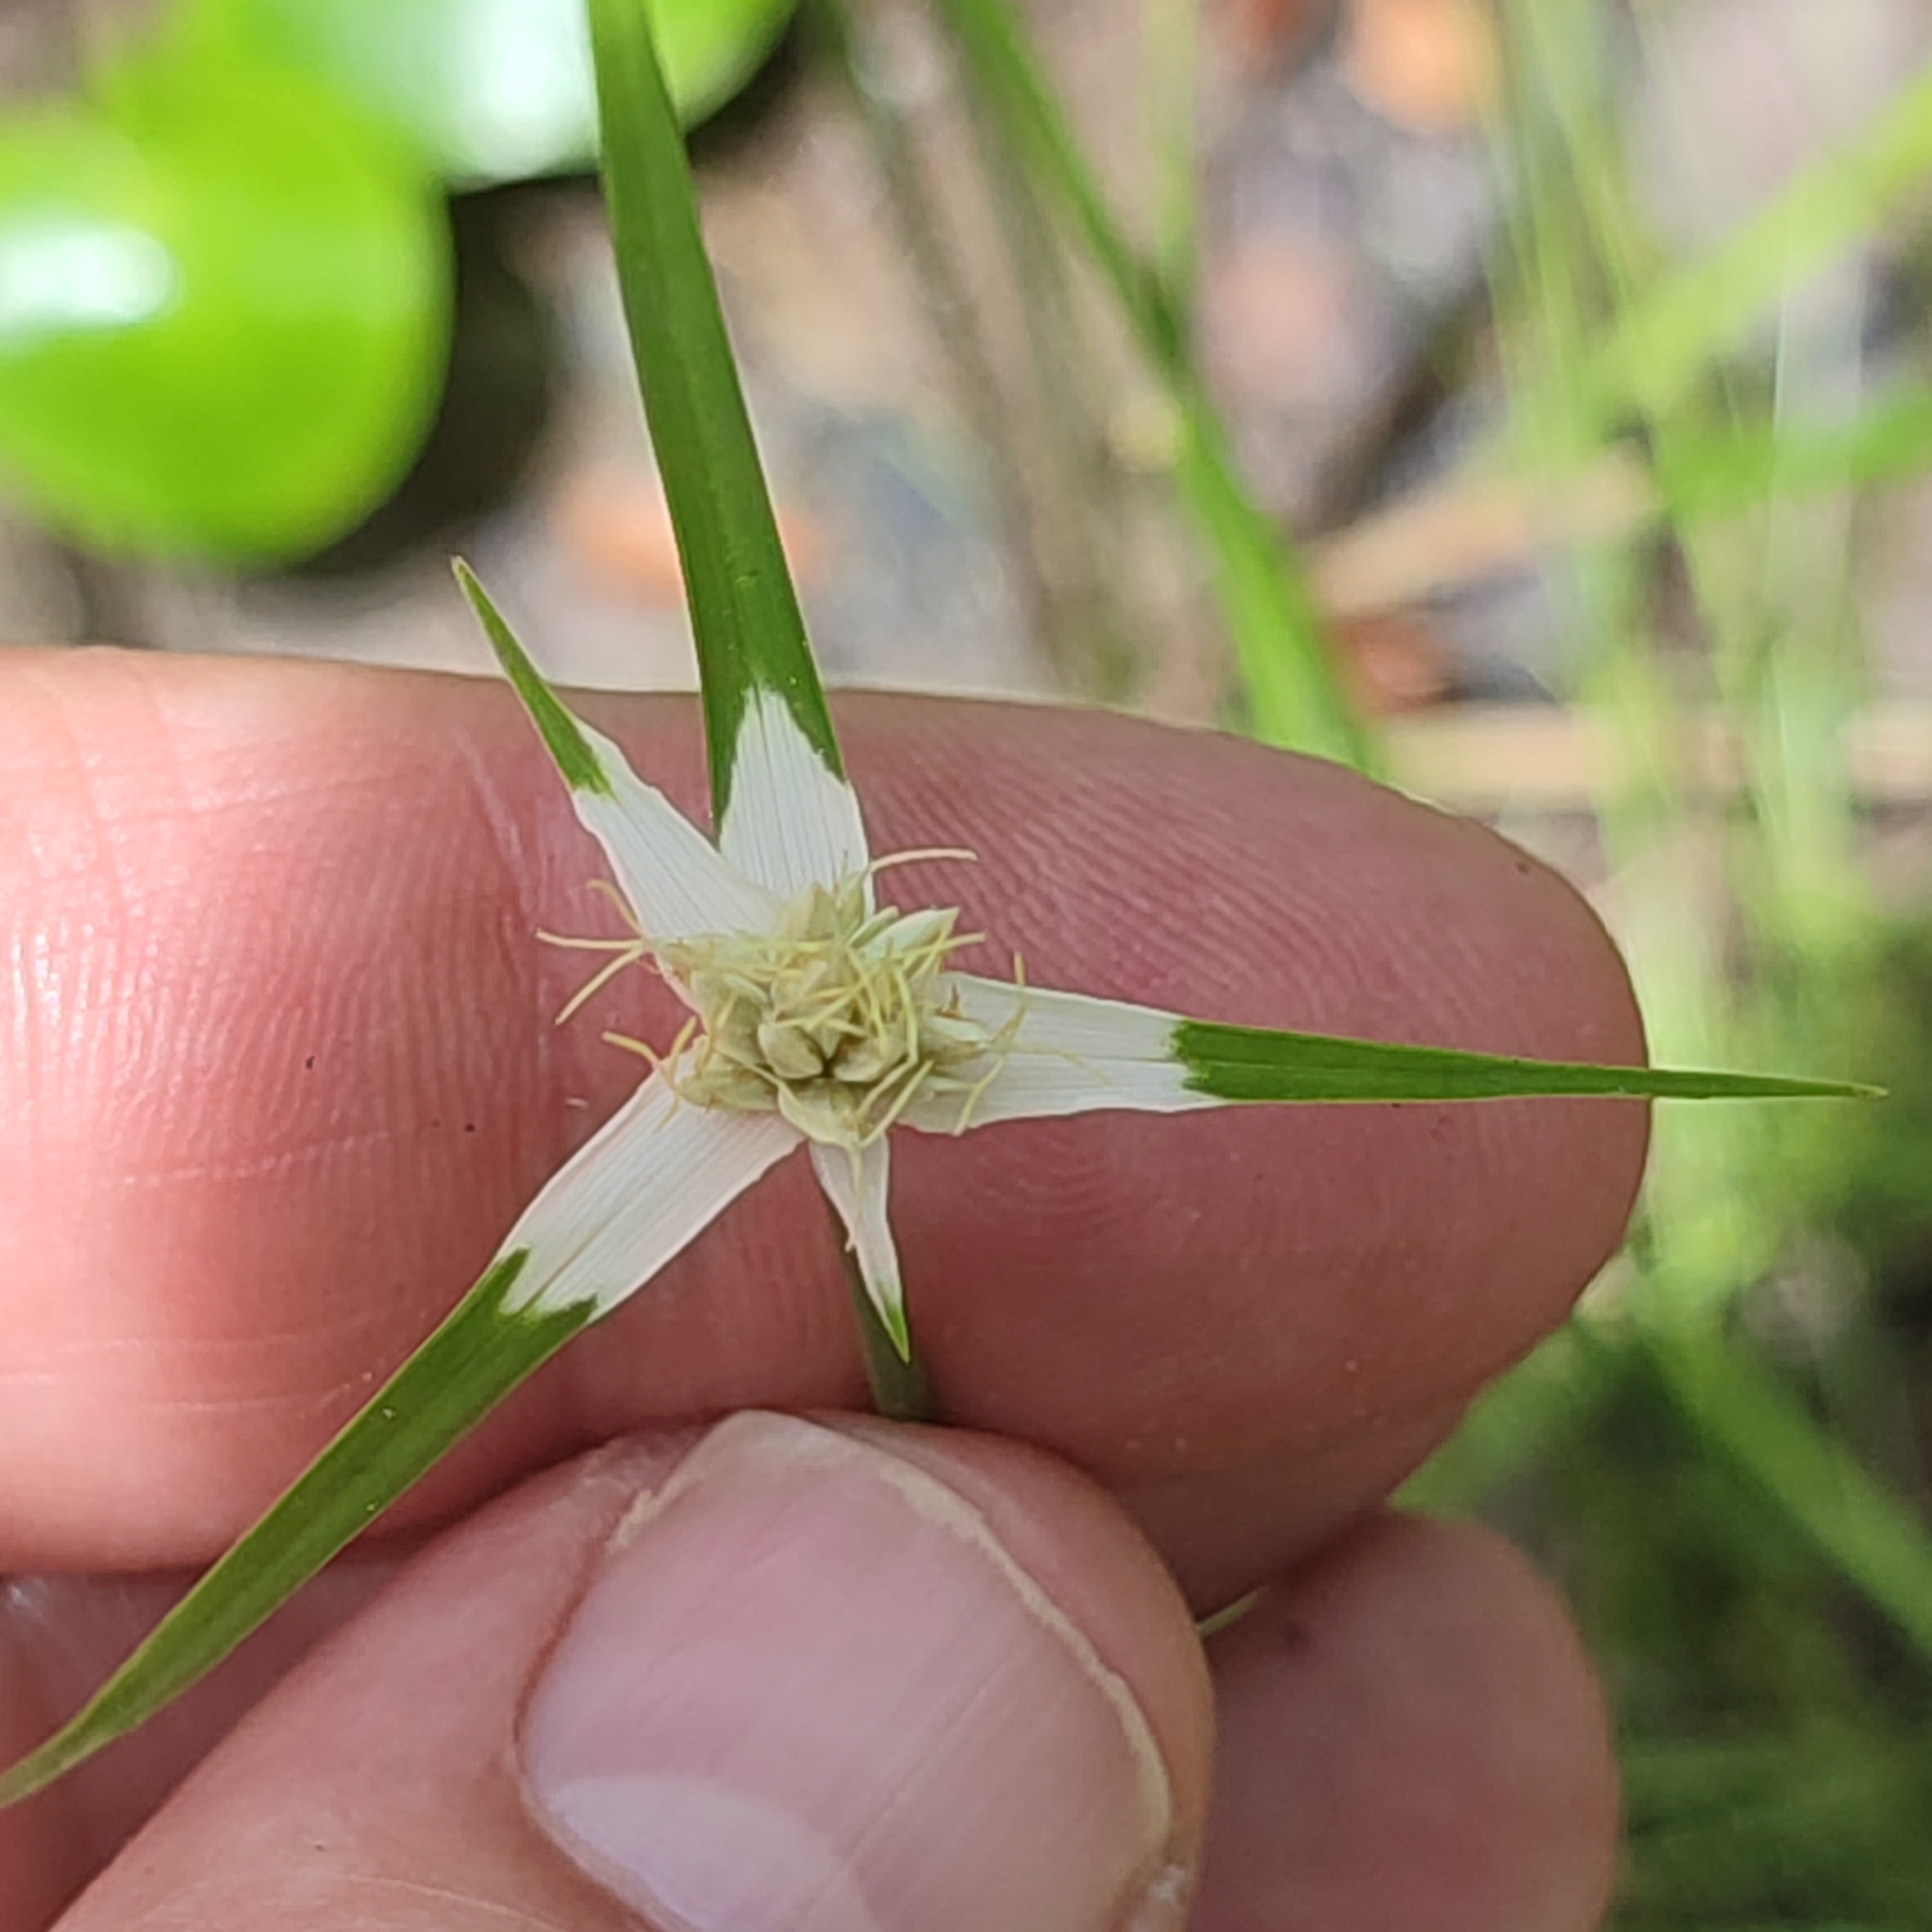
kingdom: Plantae
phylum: Tracheophyta
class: Liliopsida
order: Poales
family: Cyperaceae
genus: Rhynchospora
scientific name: Rhynchospora colorata
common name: Star sedge
